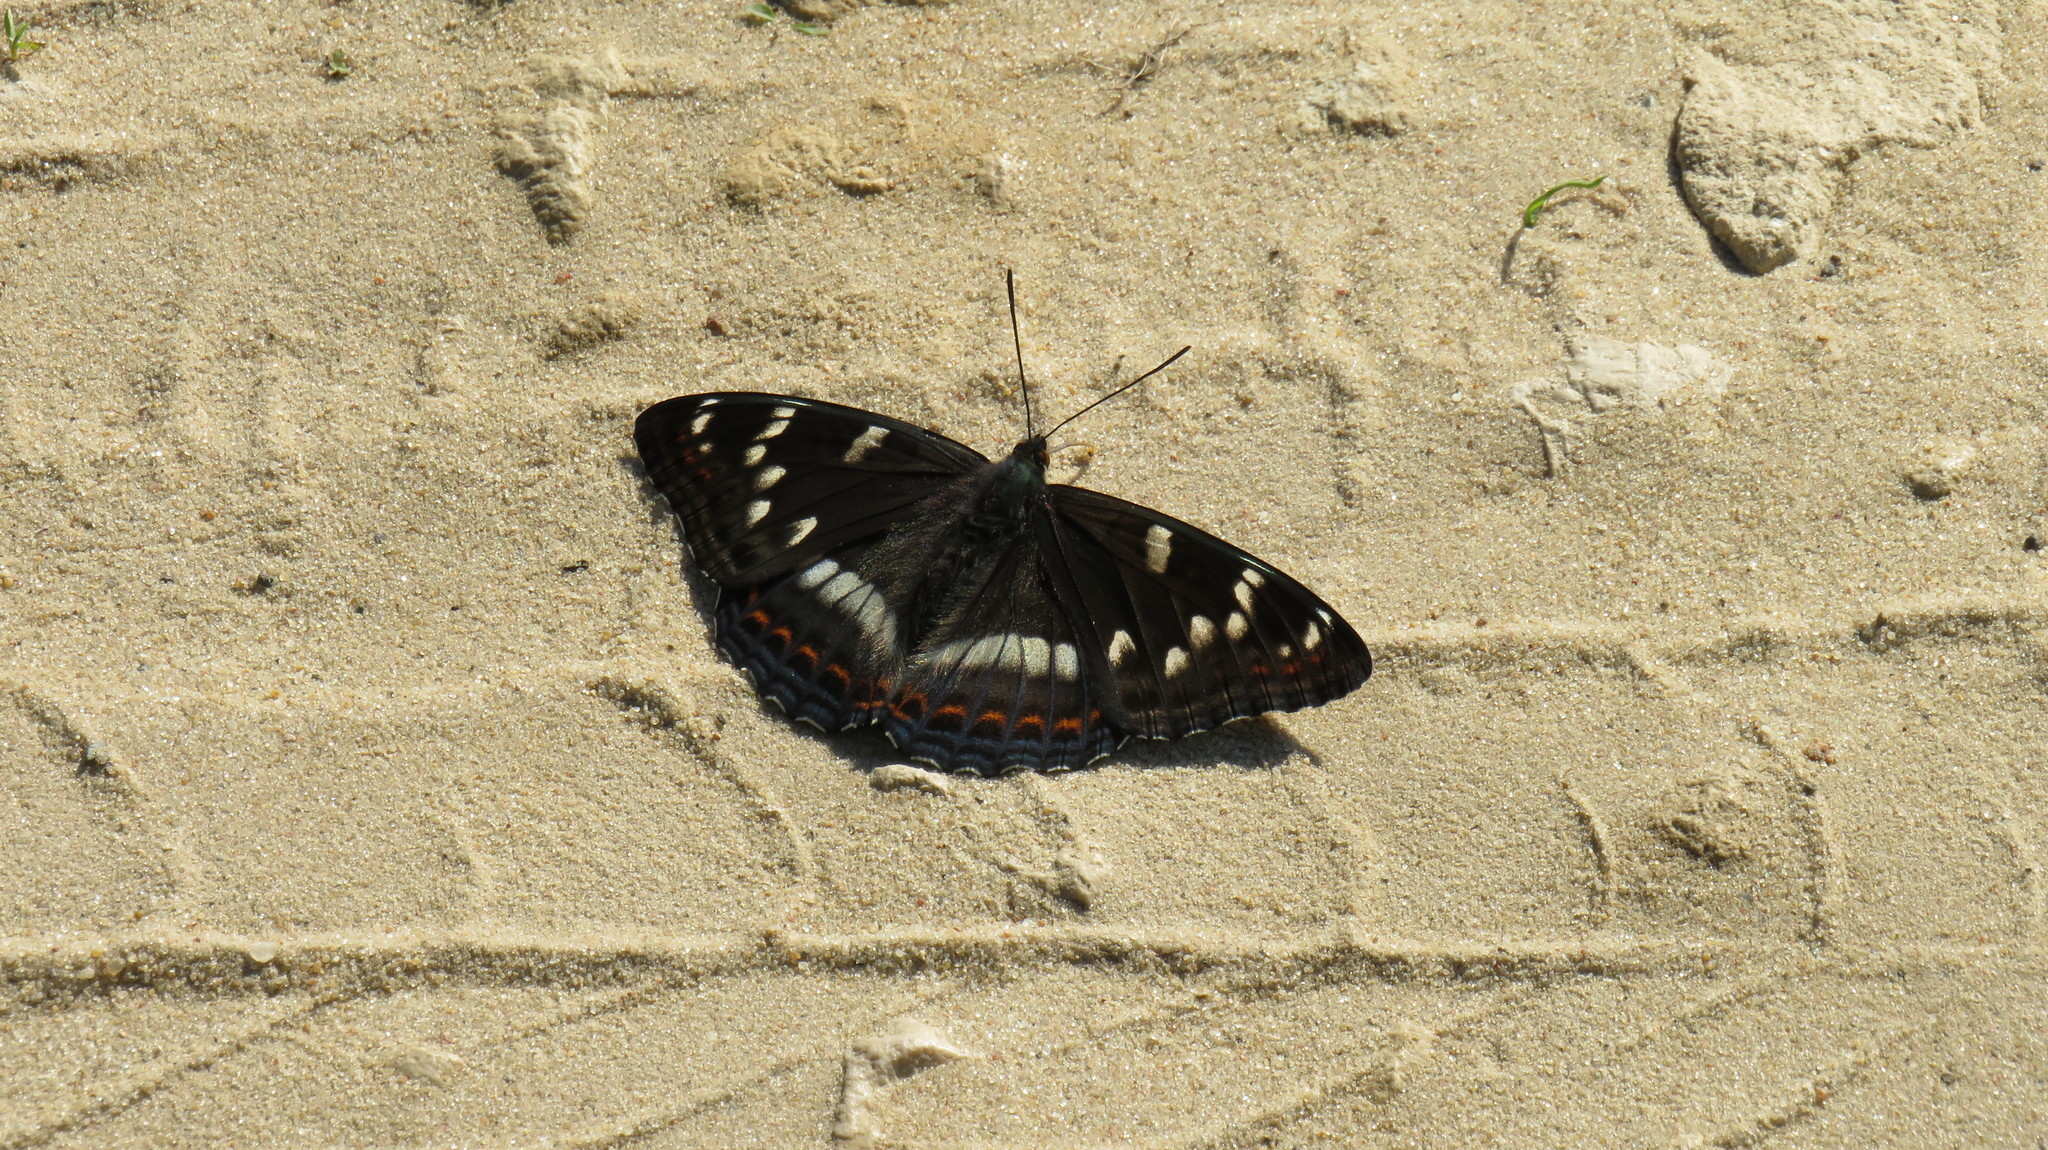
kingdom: Animalia
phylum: Arthropoda
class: Insecta
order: Lepidoptera
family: Nymphalidae
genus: Limenitis
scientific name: Limenitis populi
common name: Poplar admiral
